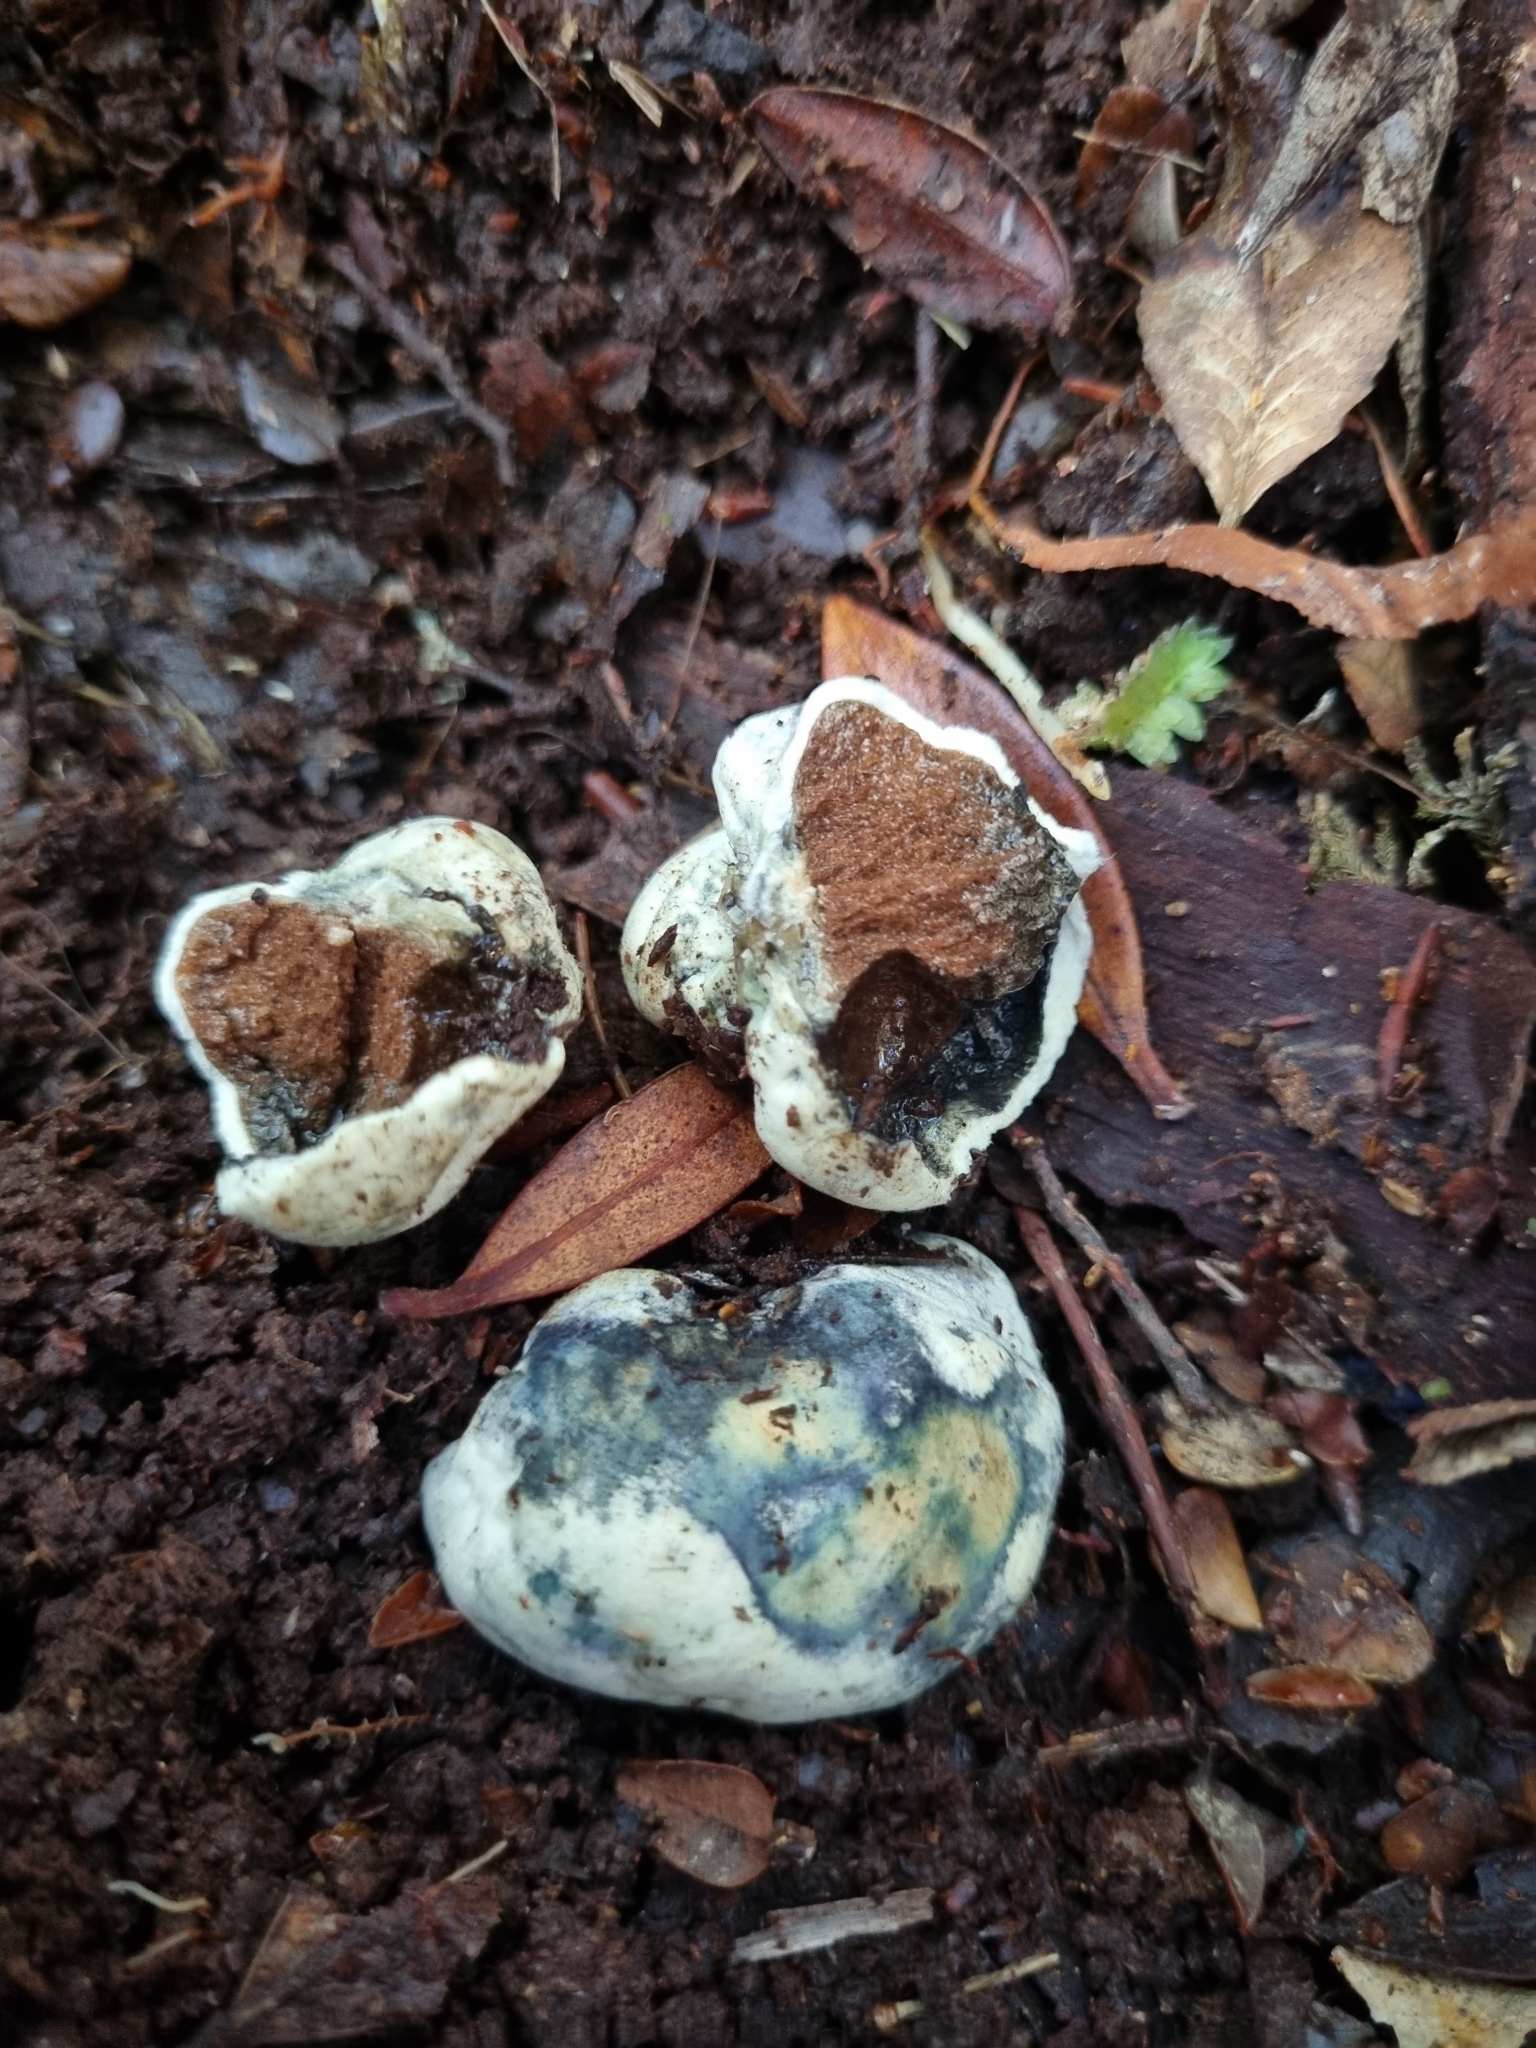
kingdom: Fungi
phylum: Basidiomycota
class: Agaricomycetes
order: Boletales
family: Boletaceae
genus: Leccinum
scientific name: Leccinum pachyderme
